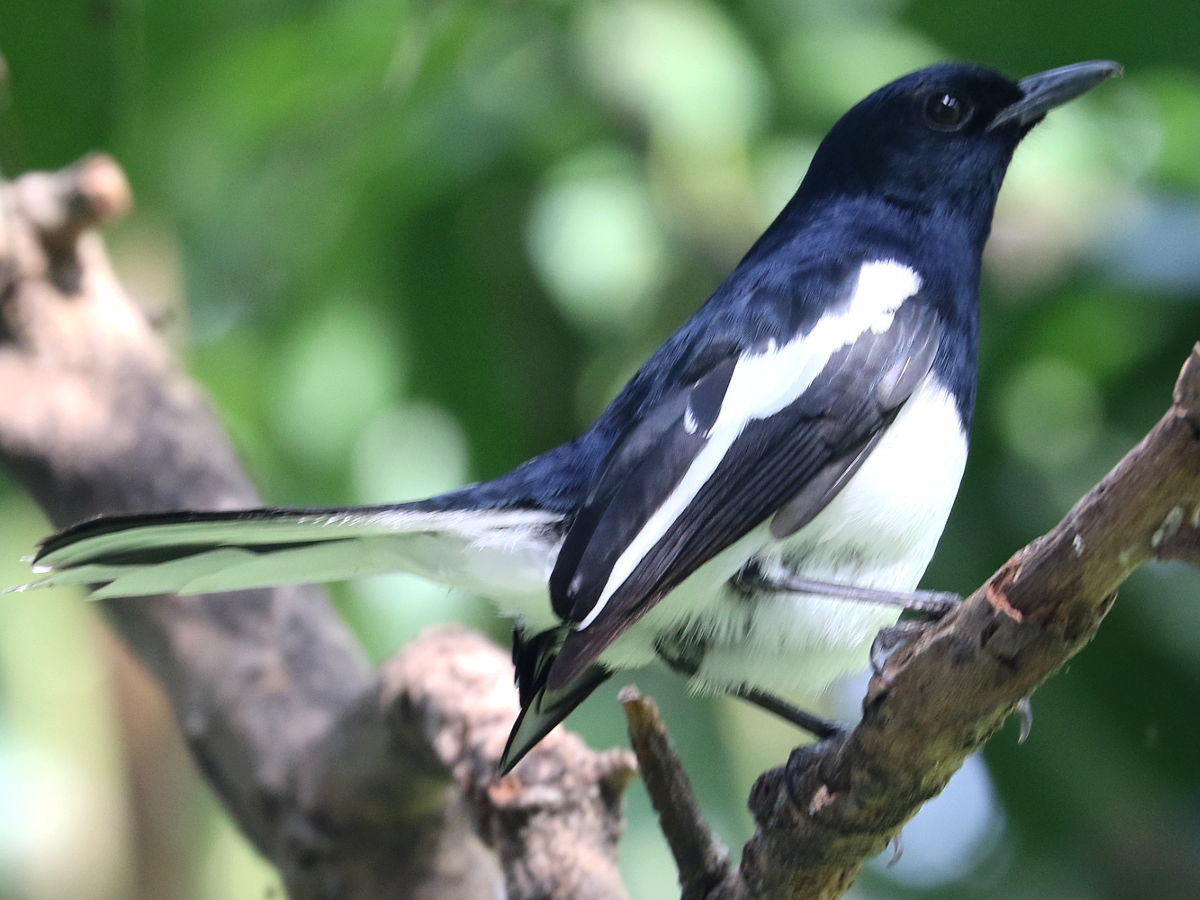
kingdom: Animalia
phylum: Chordata
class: Aves
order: Passeriformes
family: Muscicapidae
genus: Copsychus
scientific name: Copsychus saularis
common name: Oriental magpie-robin
